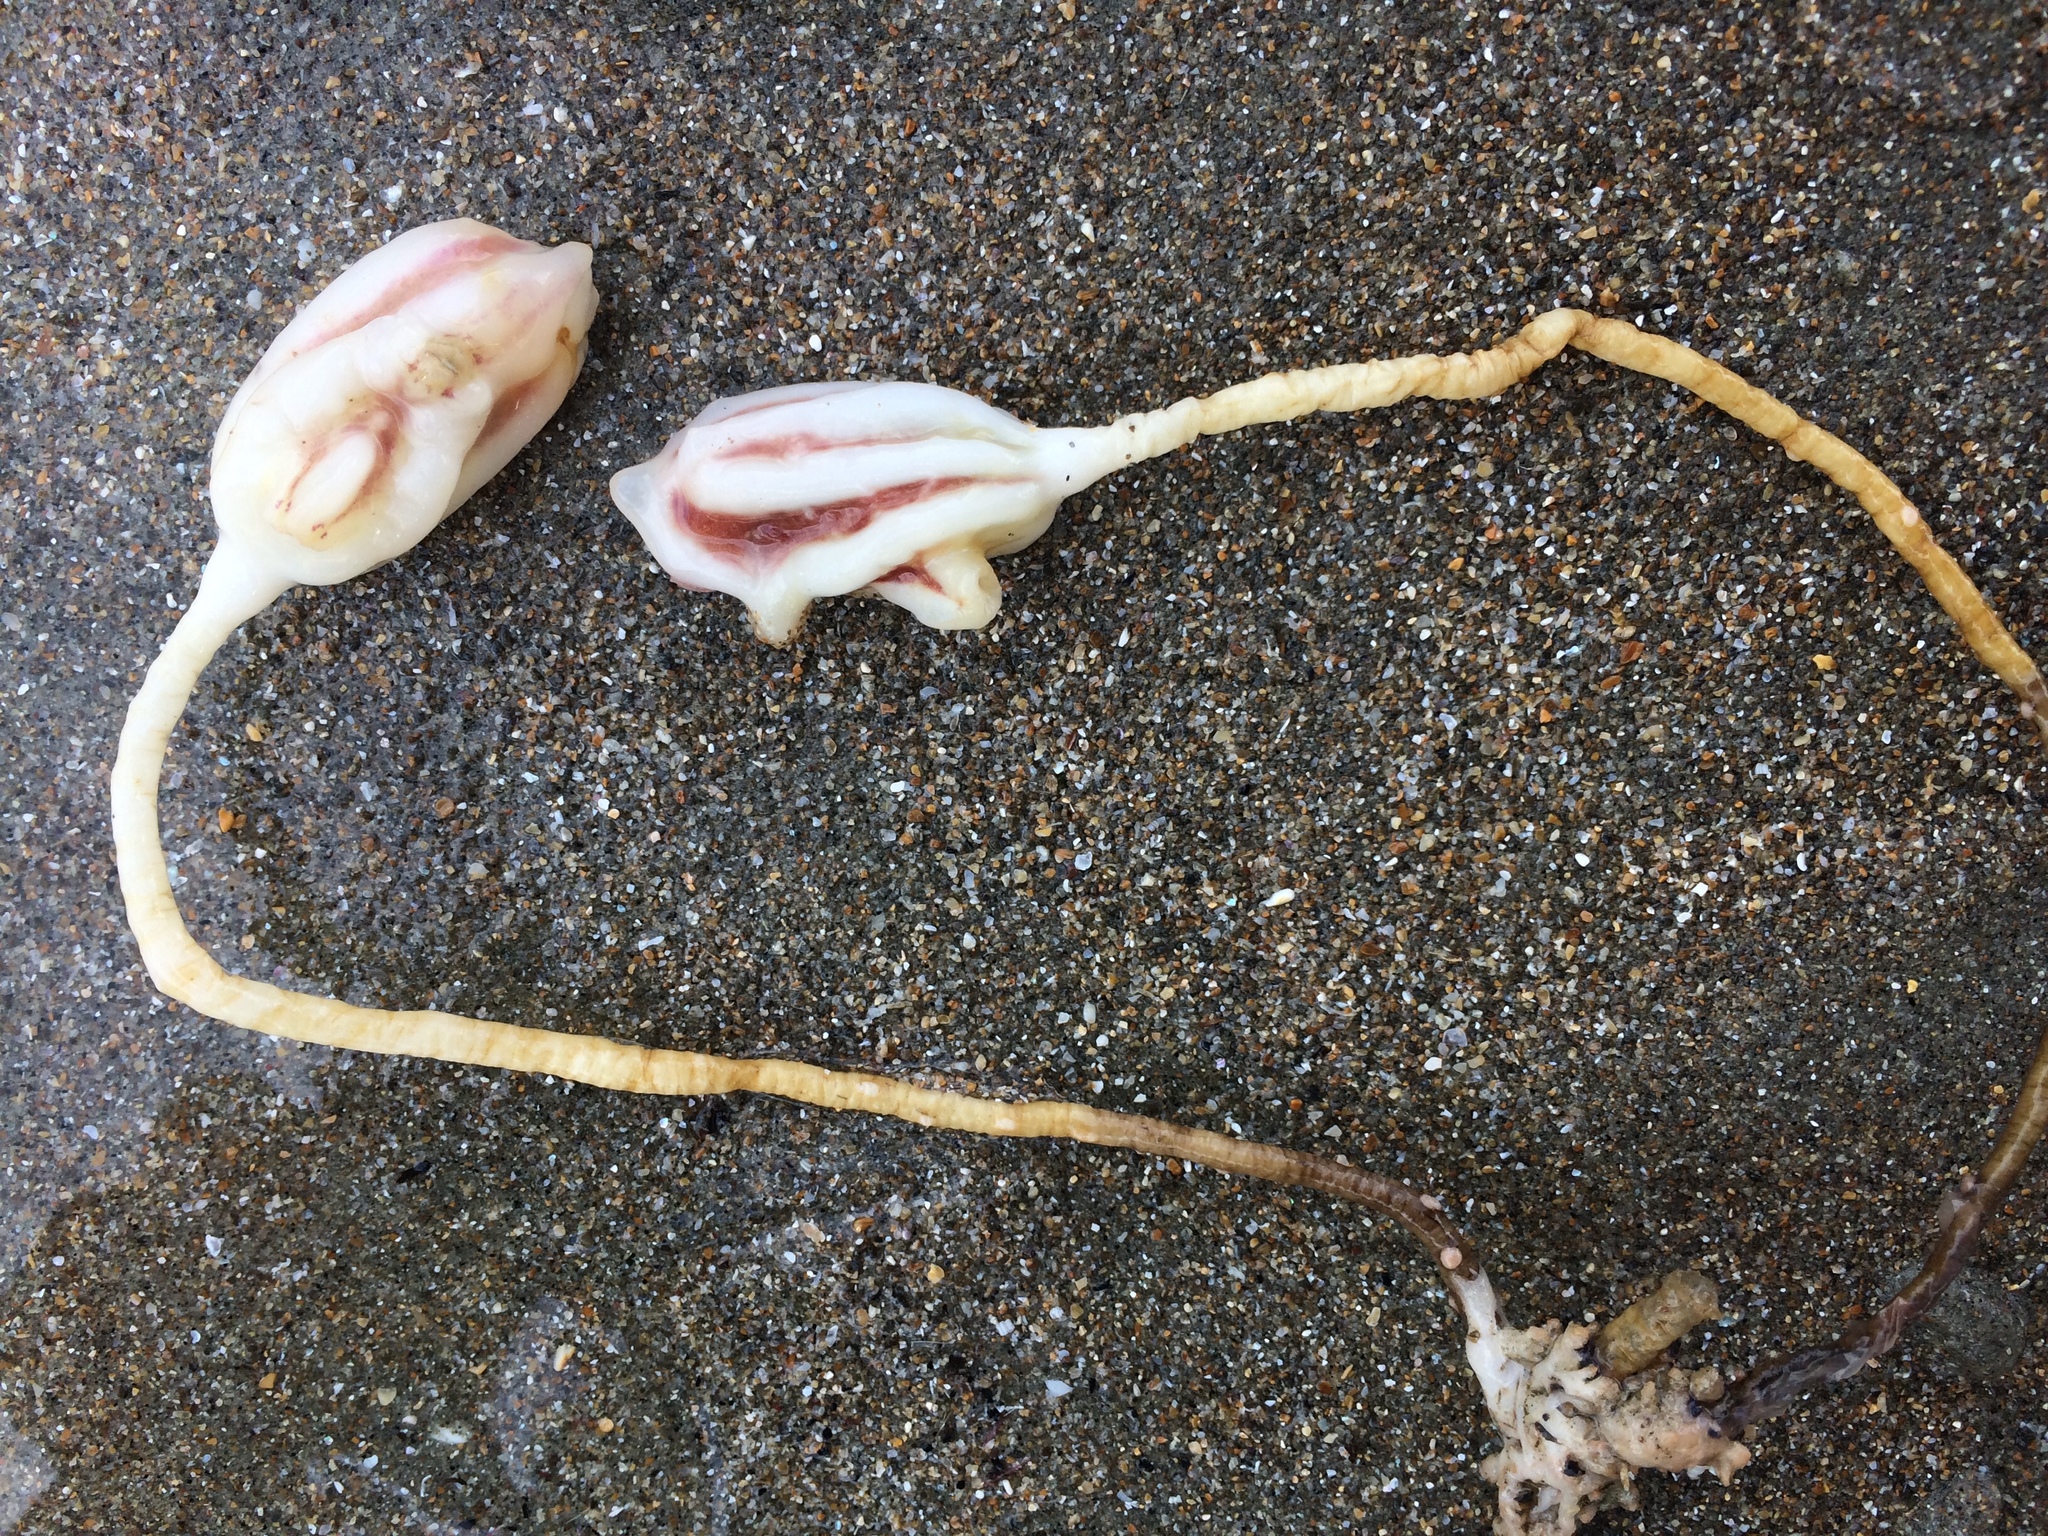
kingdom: Animalia
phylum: Chordata
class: Ascidiacea
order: Stolidobranchia
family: Pyuridae
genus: Pyura
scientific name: Pyura pachydermatina
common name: Sea tulip
